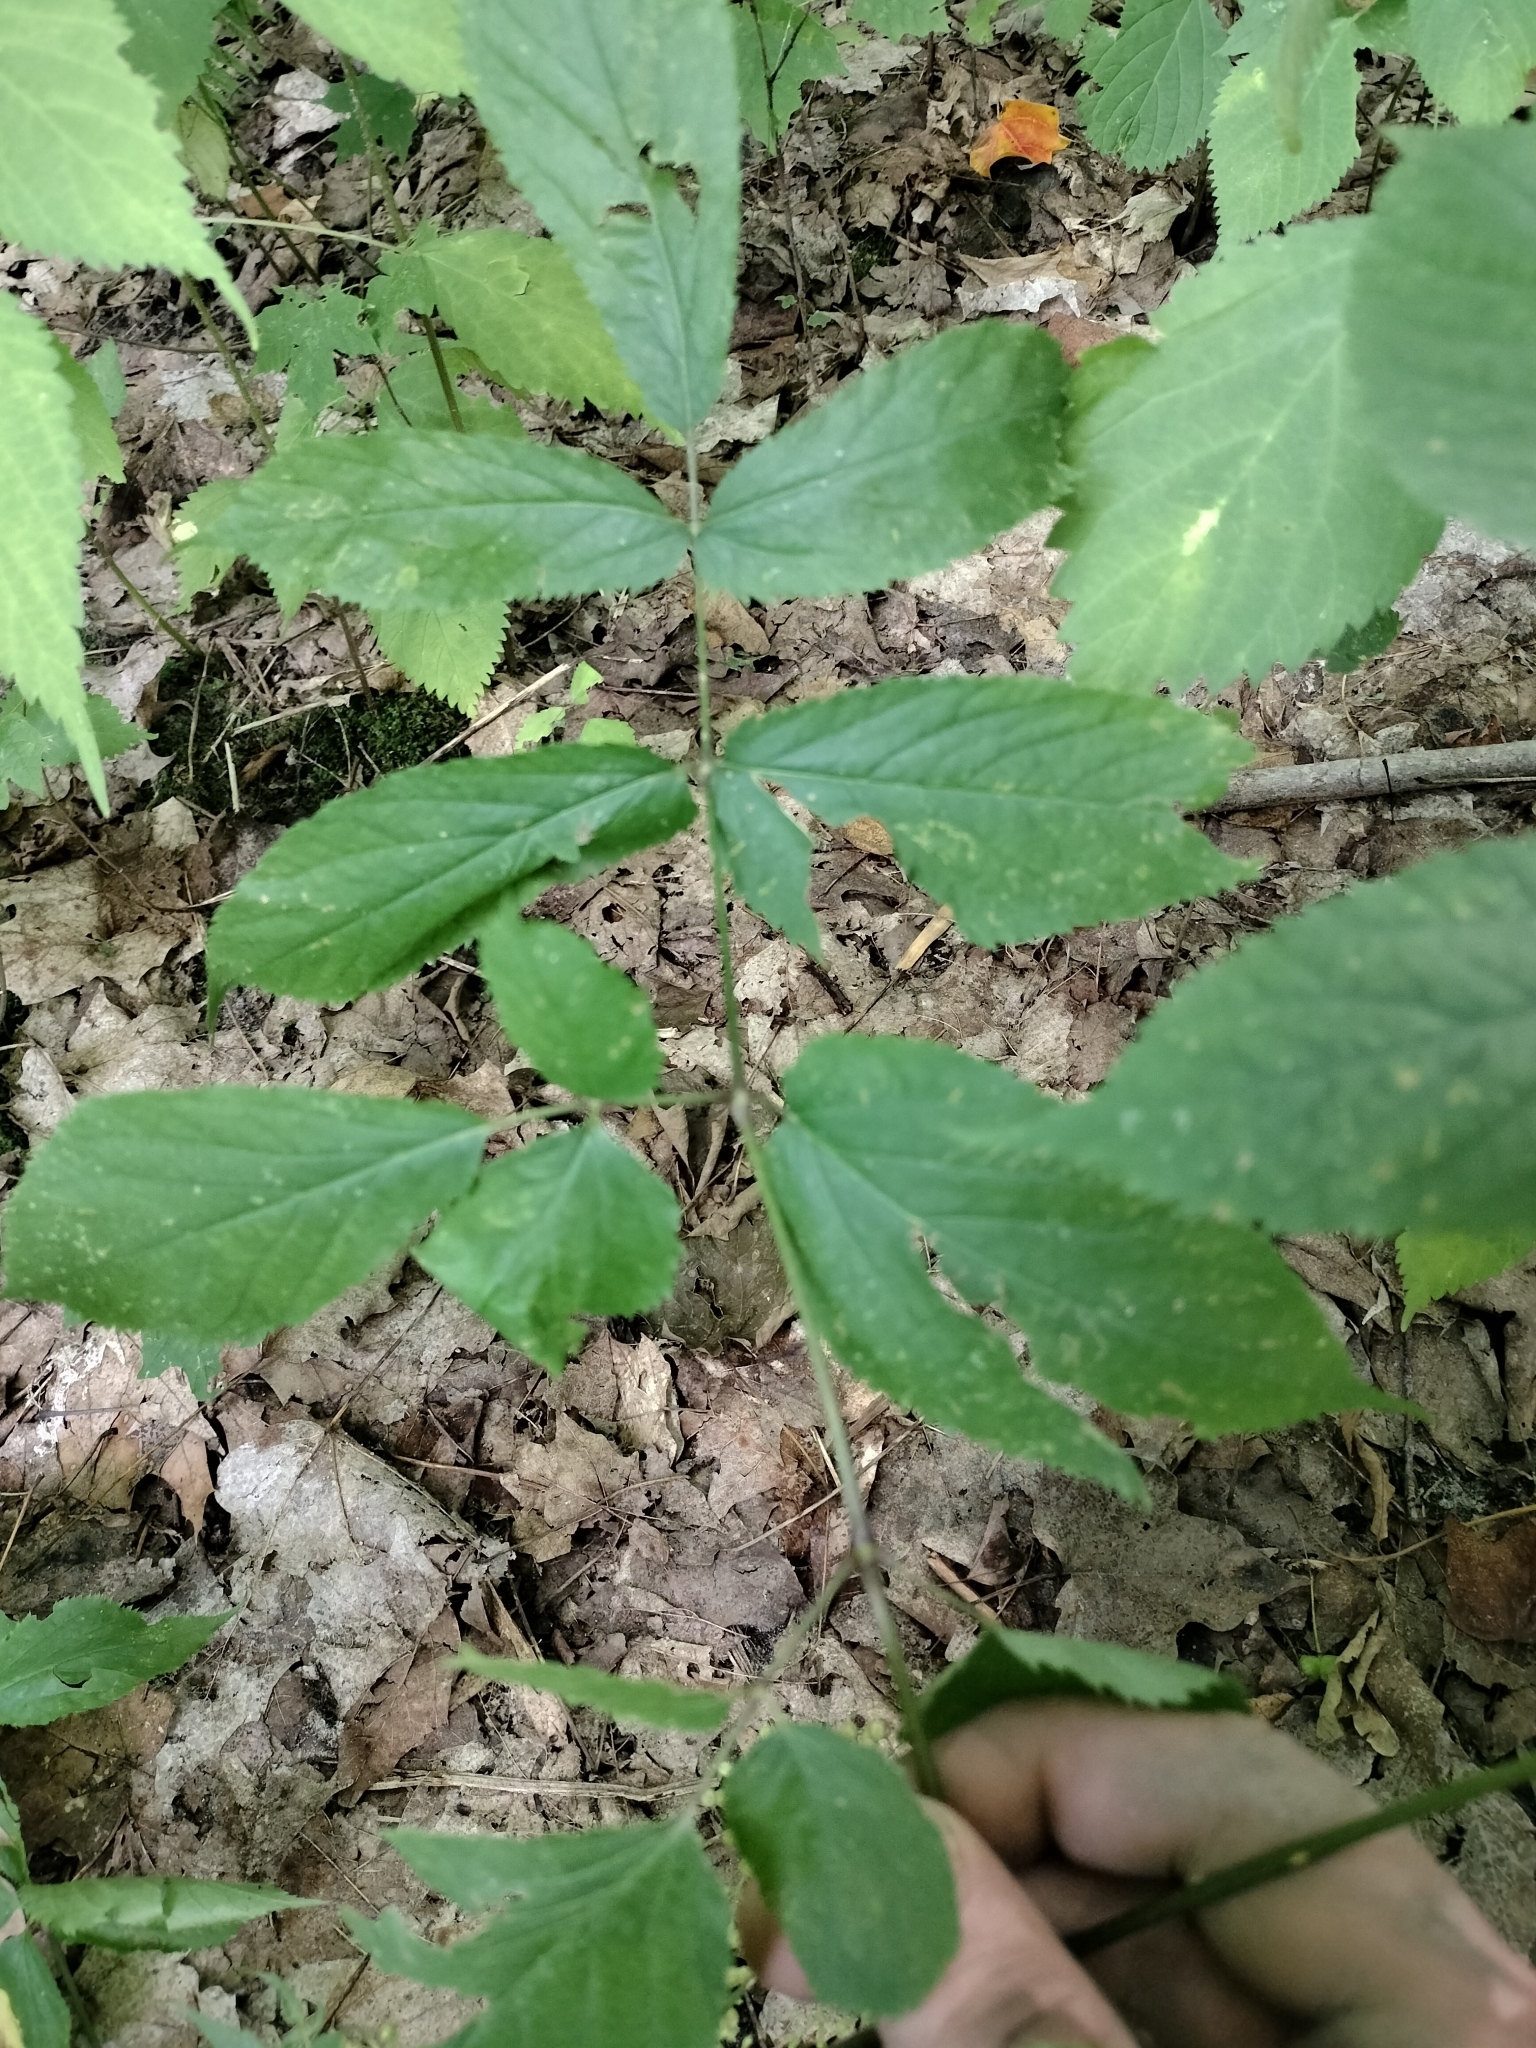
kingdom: Plantae
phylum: Tracheophyta
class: Magnoliopsida
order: Apiales
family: Araliaceae
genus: Aralia
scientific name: Aralia racemosa
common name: American-spikenard
